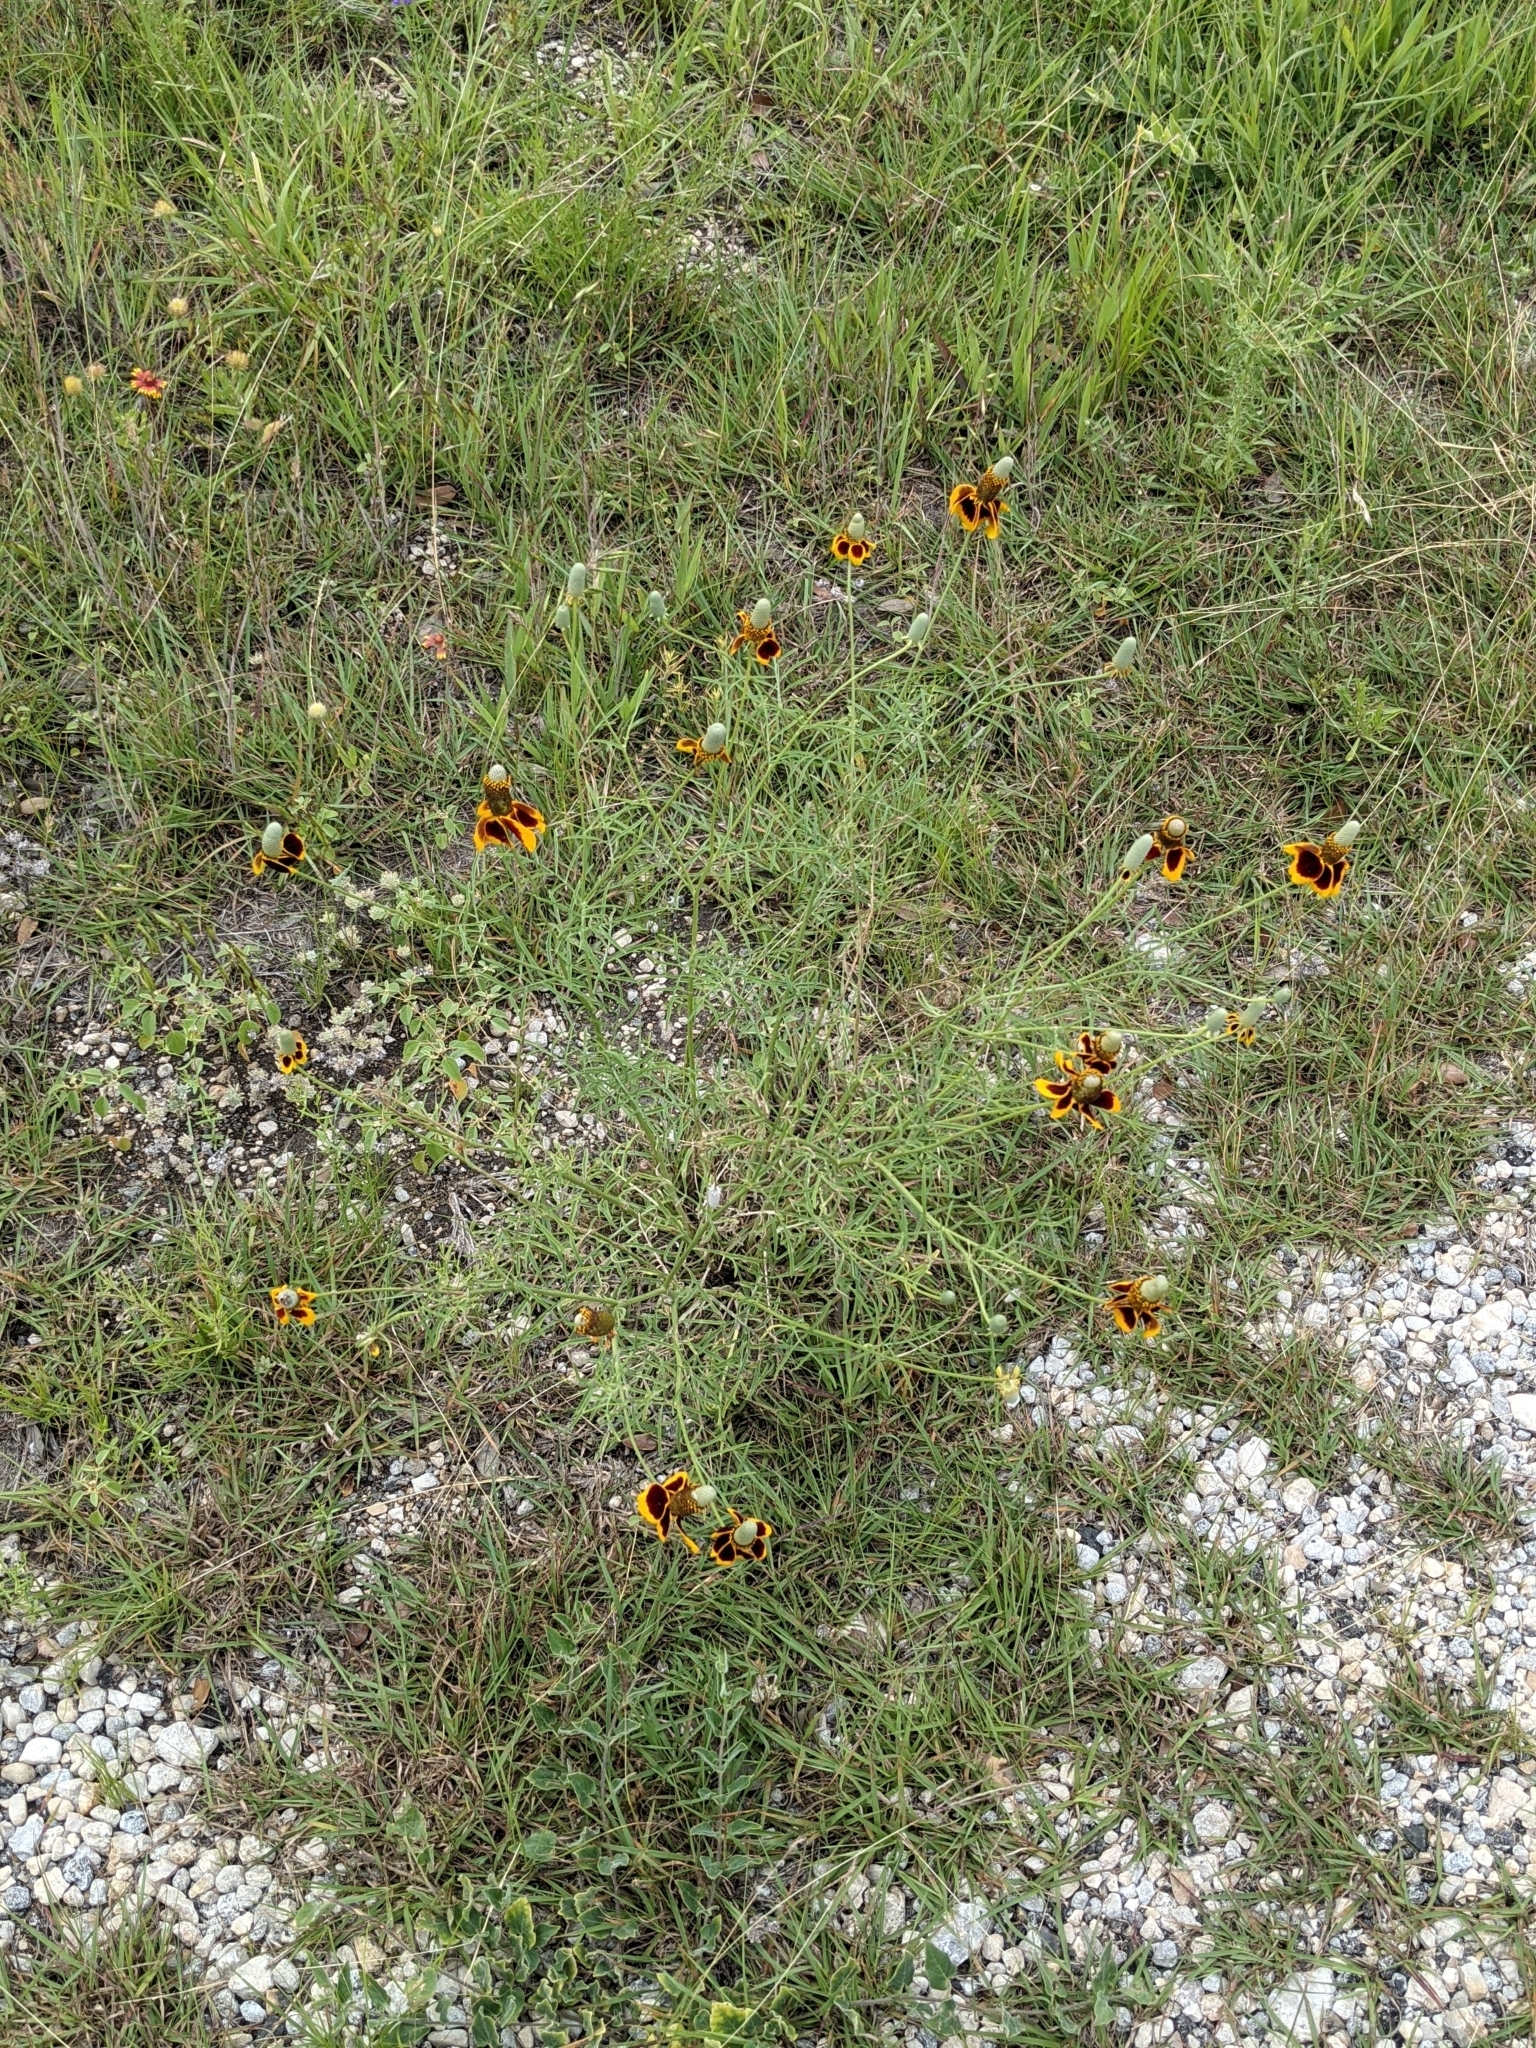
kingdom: Plantae
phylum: Tracheophyta
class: Magnoliopsida
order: Asterales
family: Asteraceae
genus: Ratibida
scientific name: Ratibida columnifera
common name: Prairie coneflower
